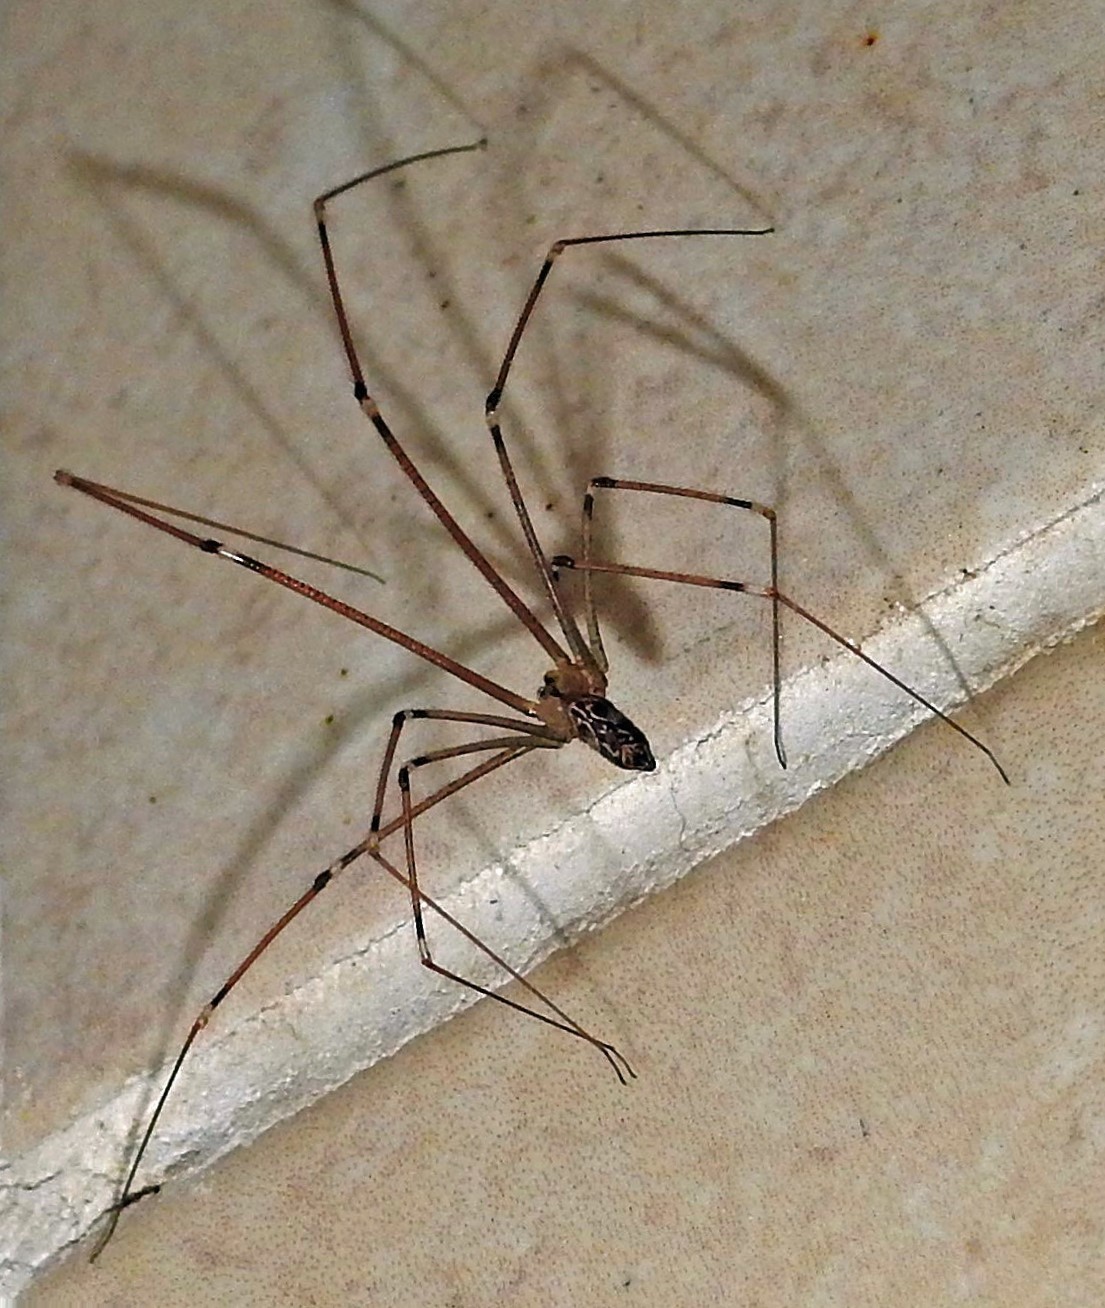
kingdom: Animalia
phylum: Arthropoda
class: Arachnida
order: Araneae
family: Pholcidae
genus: Holocnemus
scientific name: Holocnemus pluchei
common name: Marbled cellar spider
